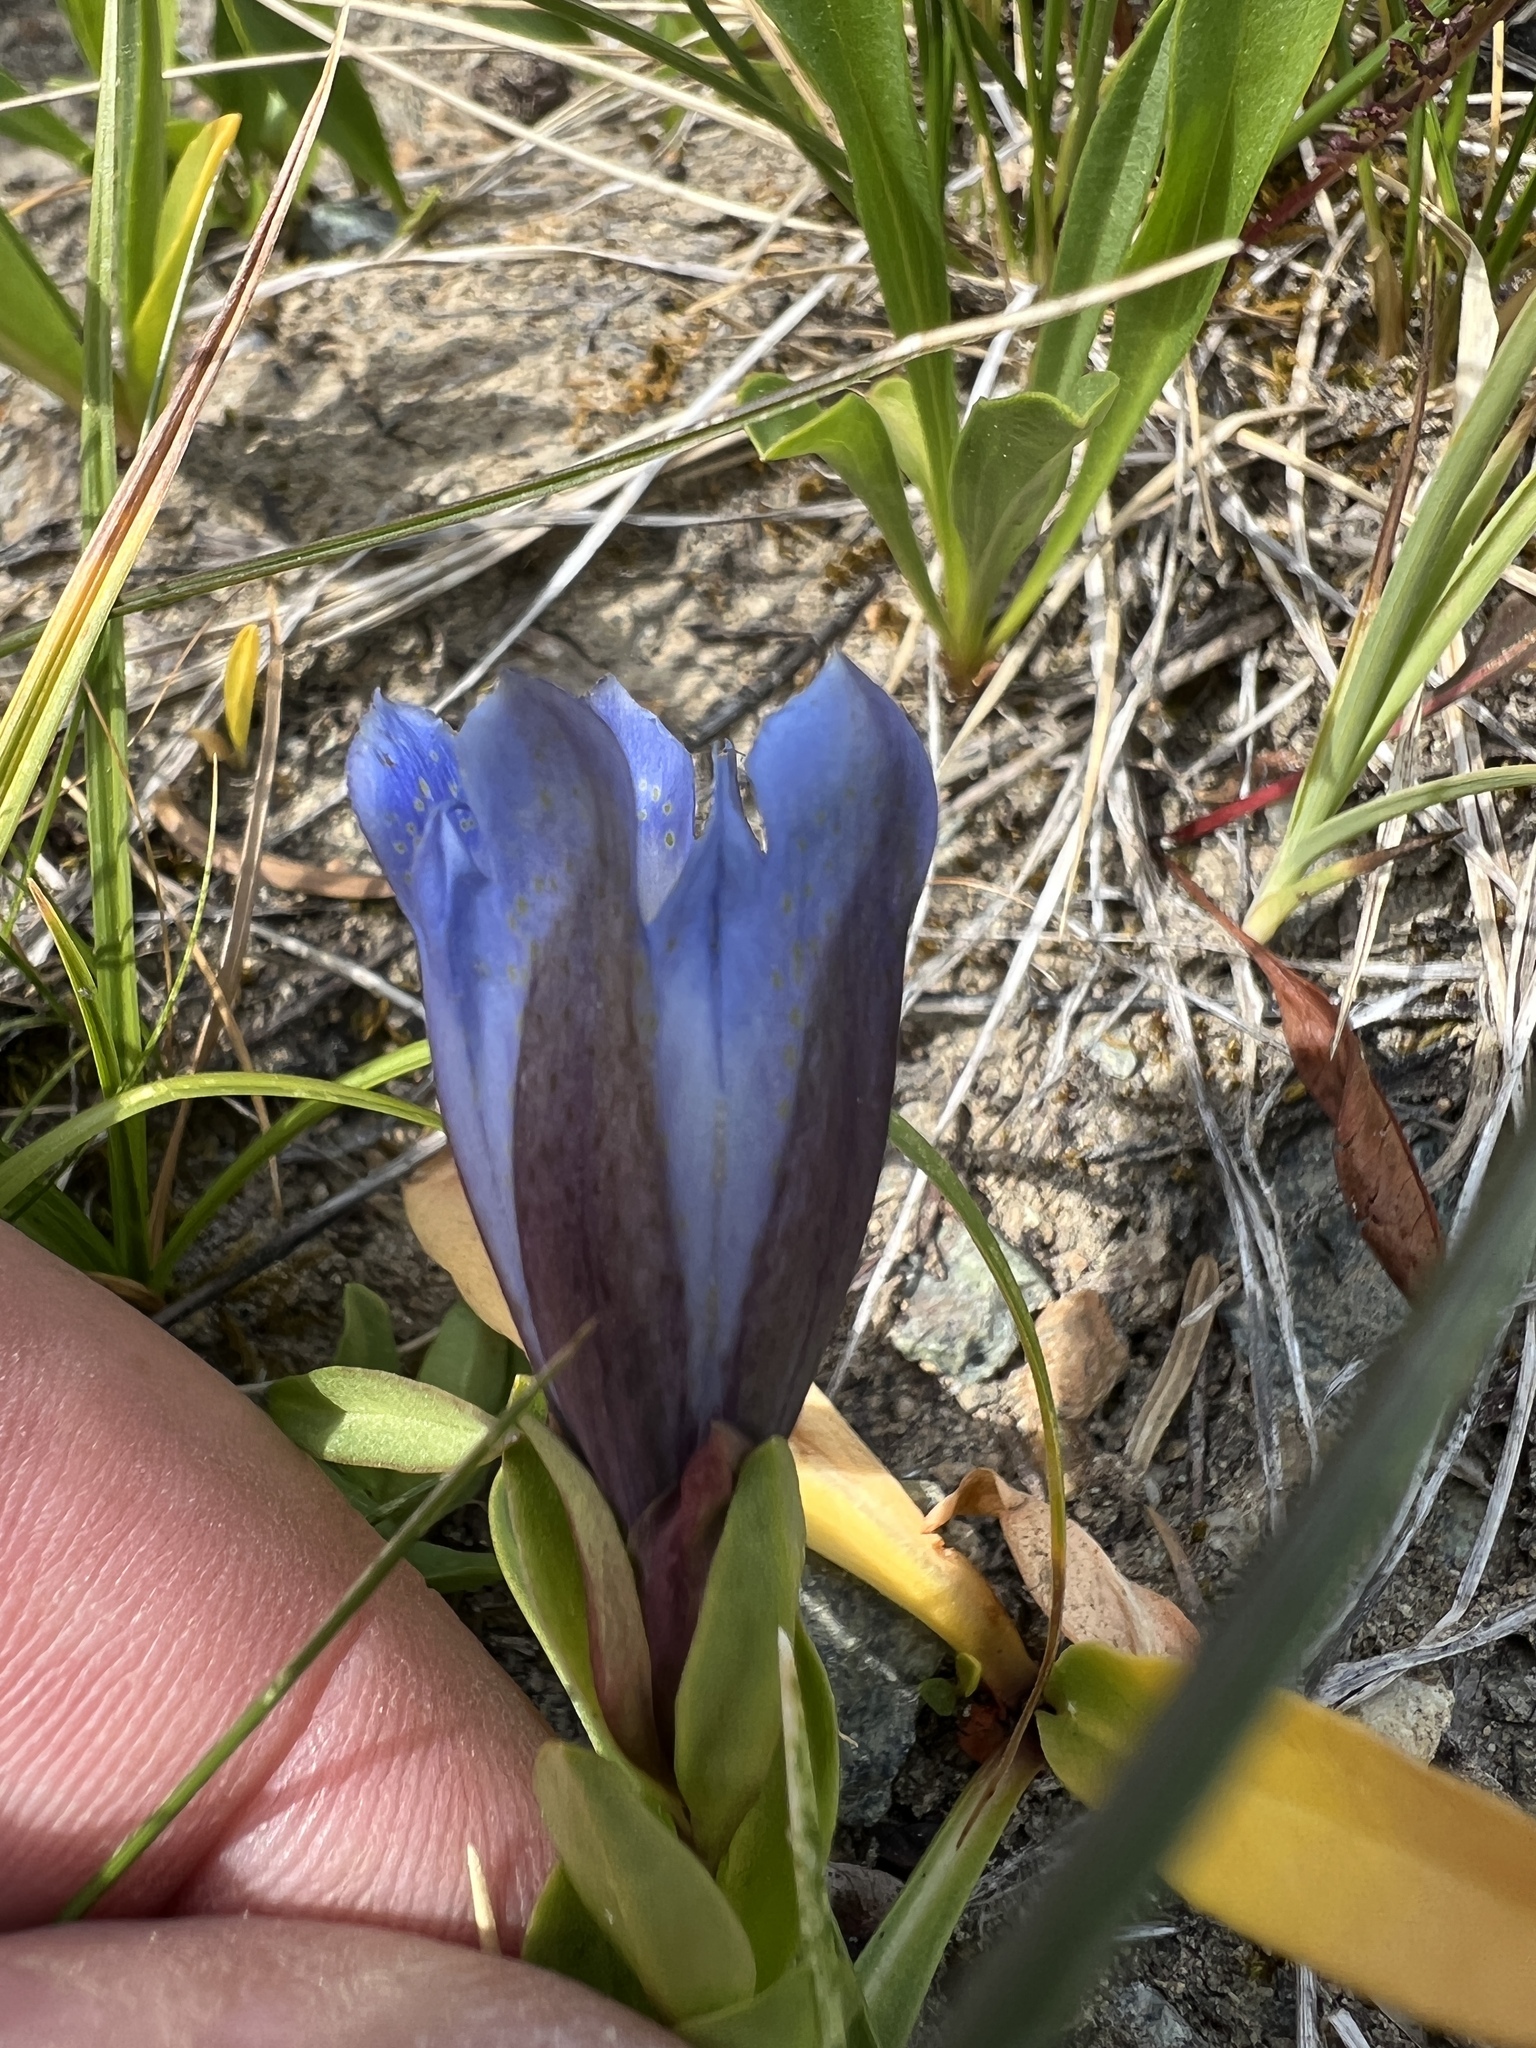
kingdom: Plantae
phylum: Tracheophyta
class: Magnoliopsida
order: Gentianales
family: Gentianaceae
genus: Gentiana
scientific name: Gentiana calycosa
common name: Rainier pleated gentian
